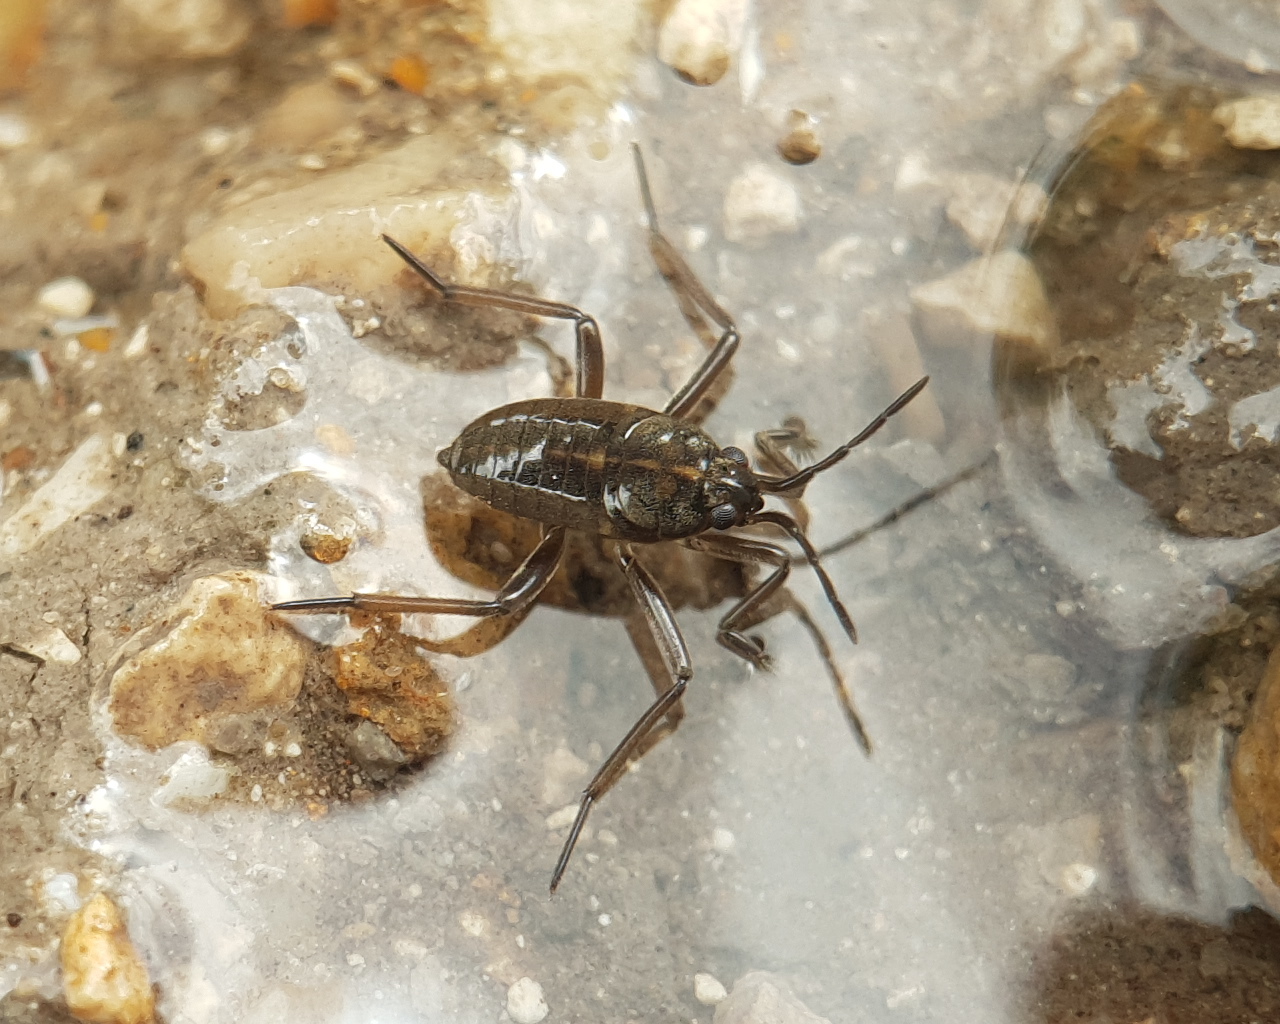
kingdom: Animalia
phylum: Arthropoda
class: Insecta
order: Hemiptera
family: Veliidae
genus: Velia
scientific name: Velia affinis
